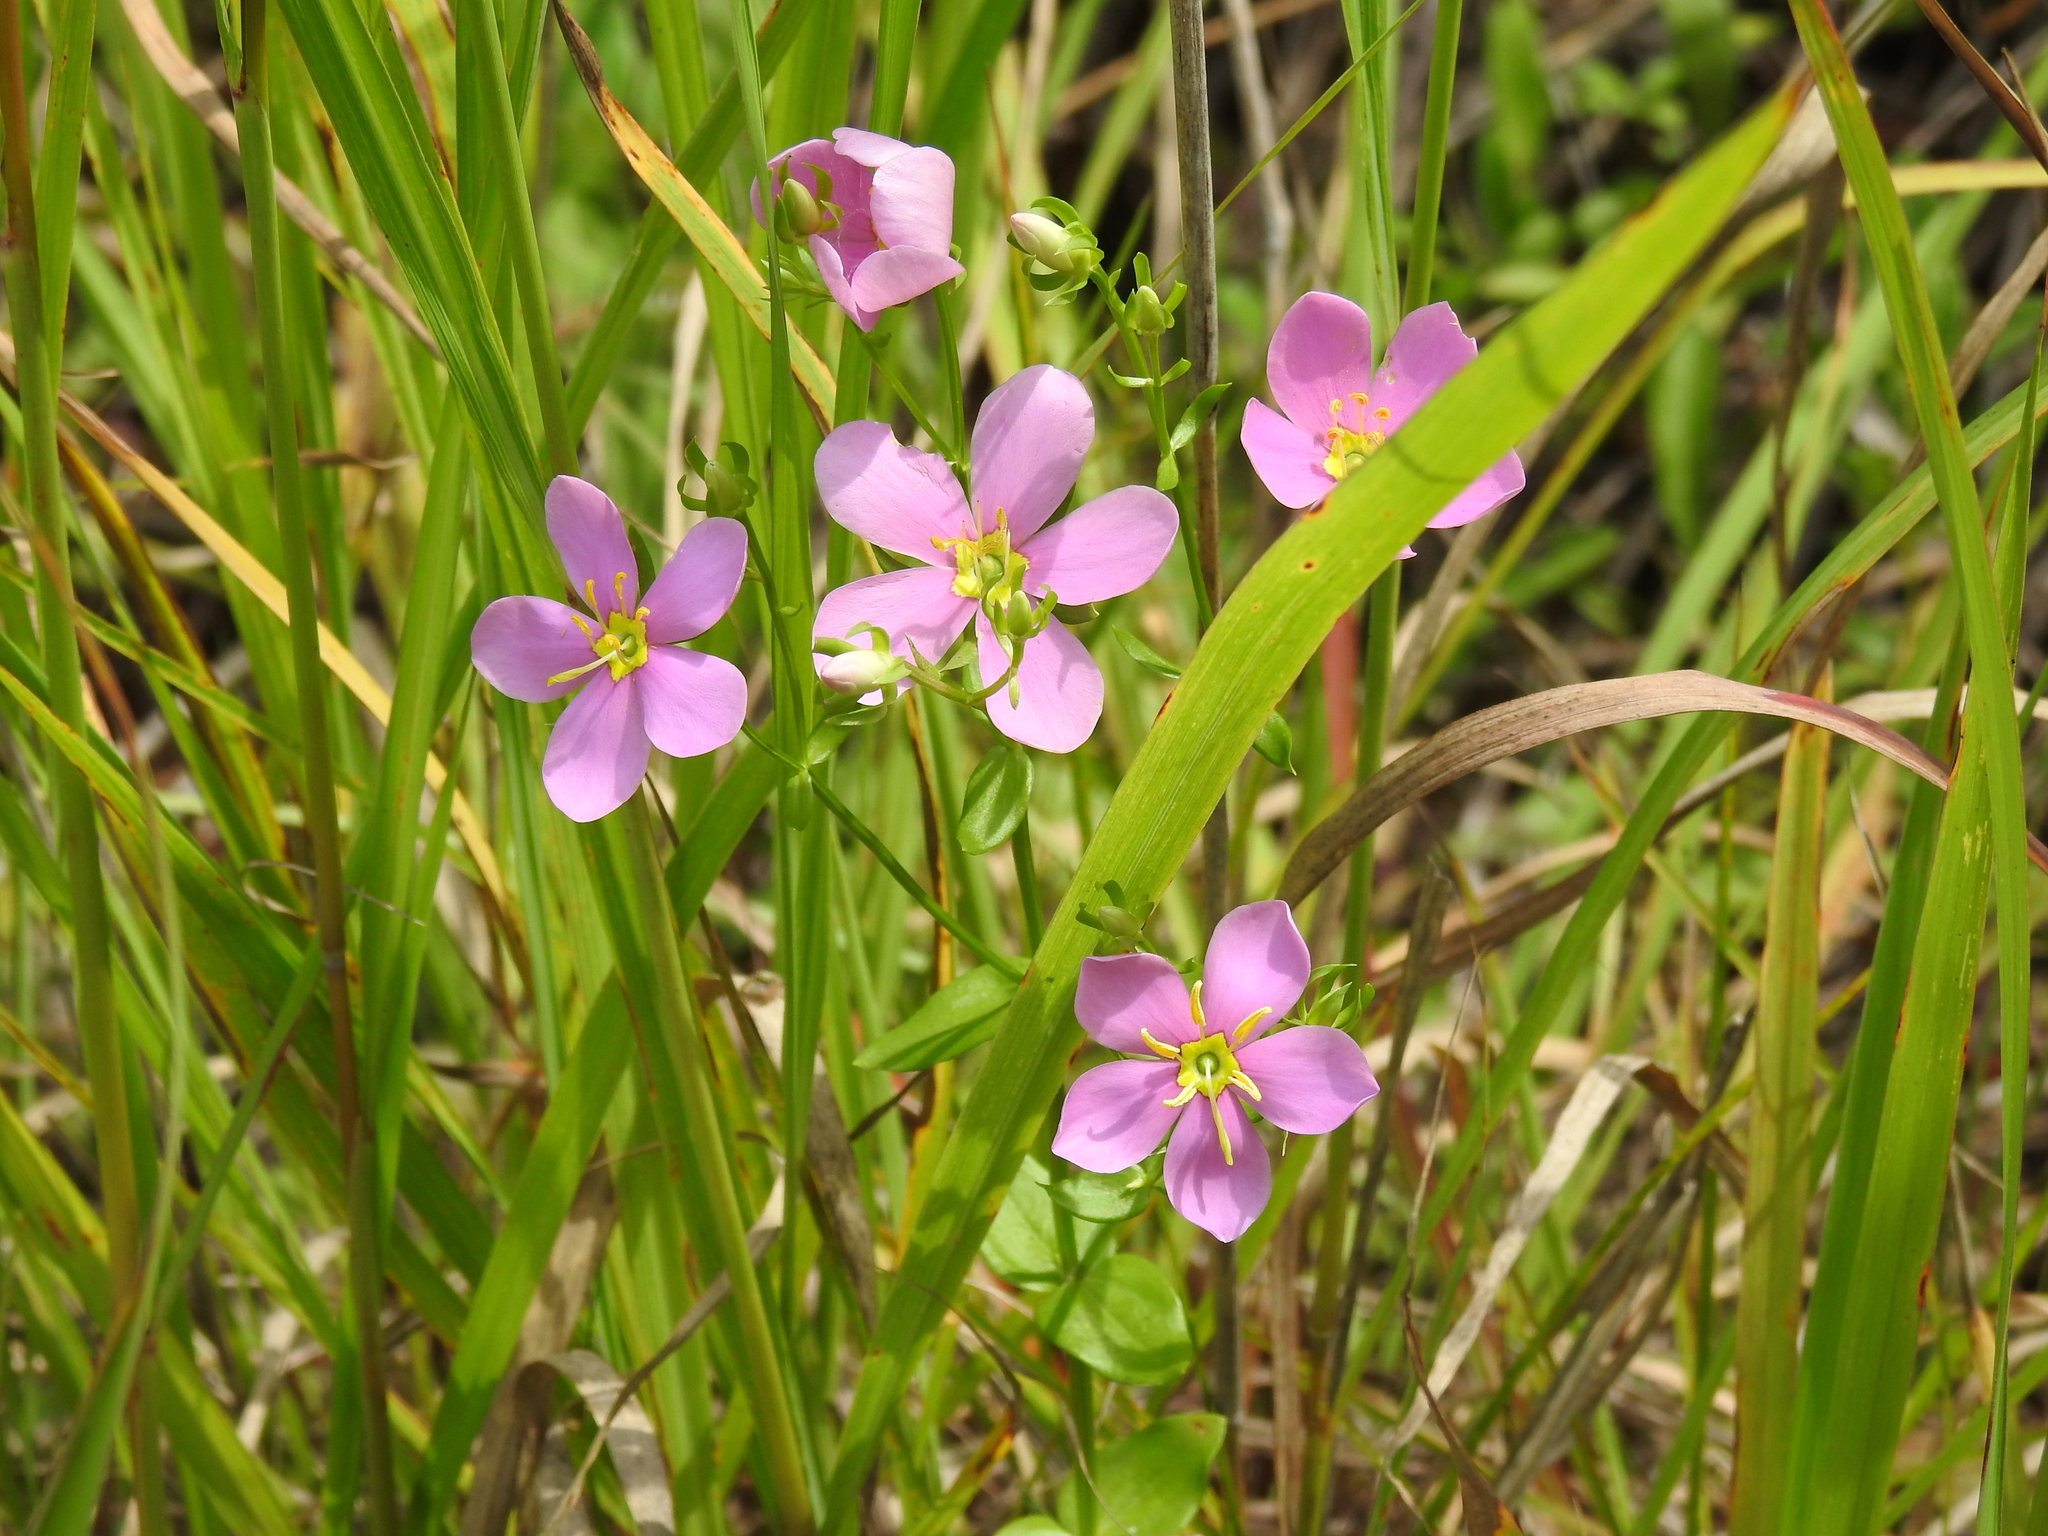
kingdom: Plantae
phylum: Tracheophyta
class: Magnoliopsida
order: Gentianales
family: Gentianaceae
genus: Sabatia
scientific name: Sabatia angularis
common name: Rose-pink
